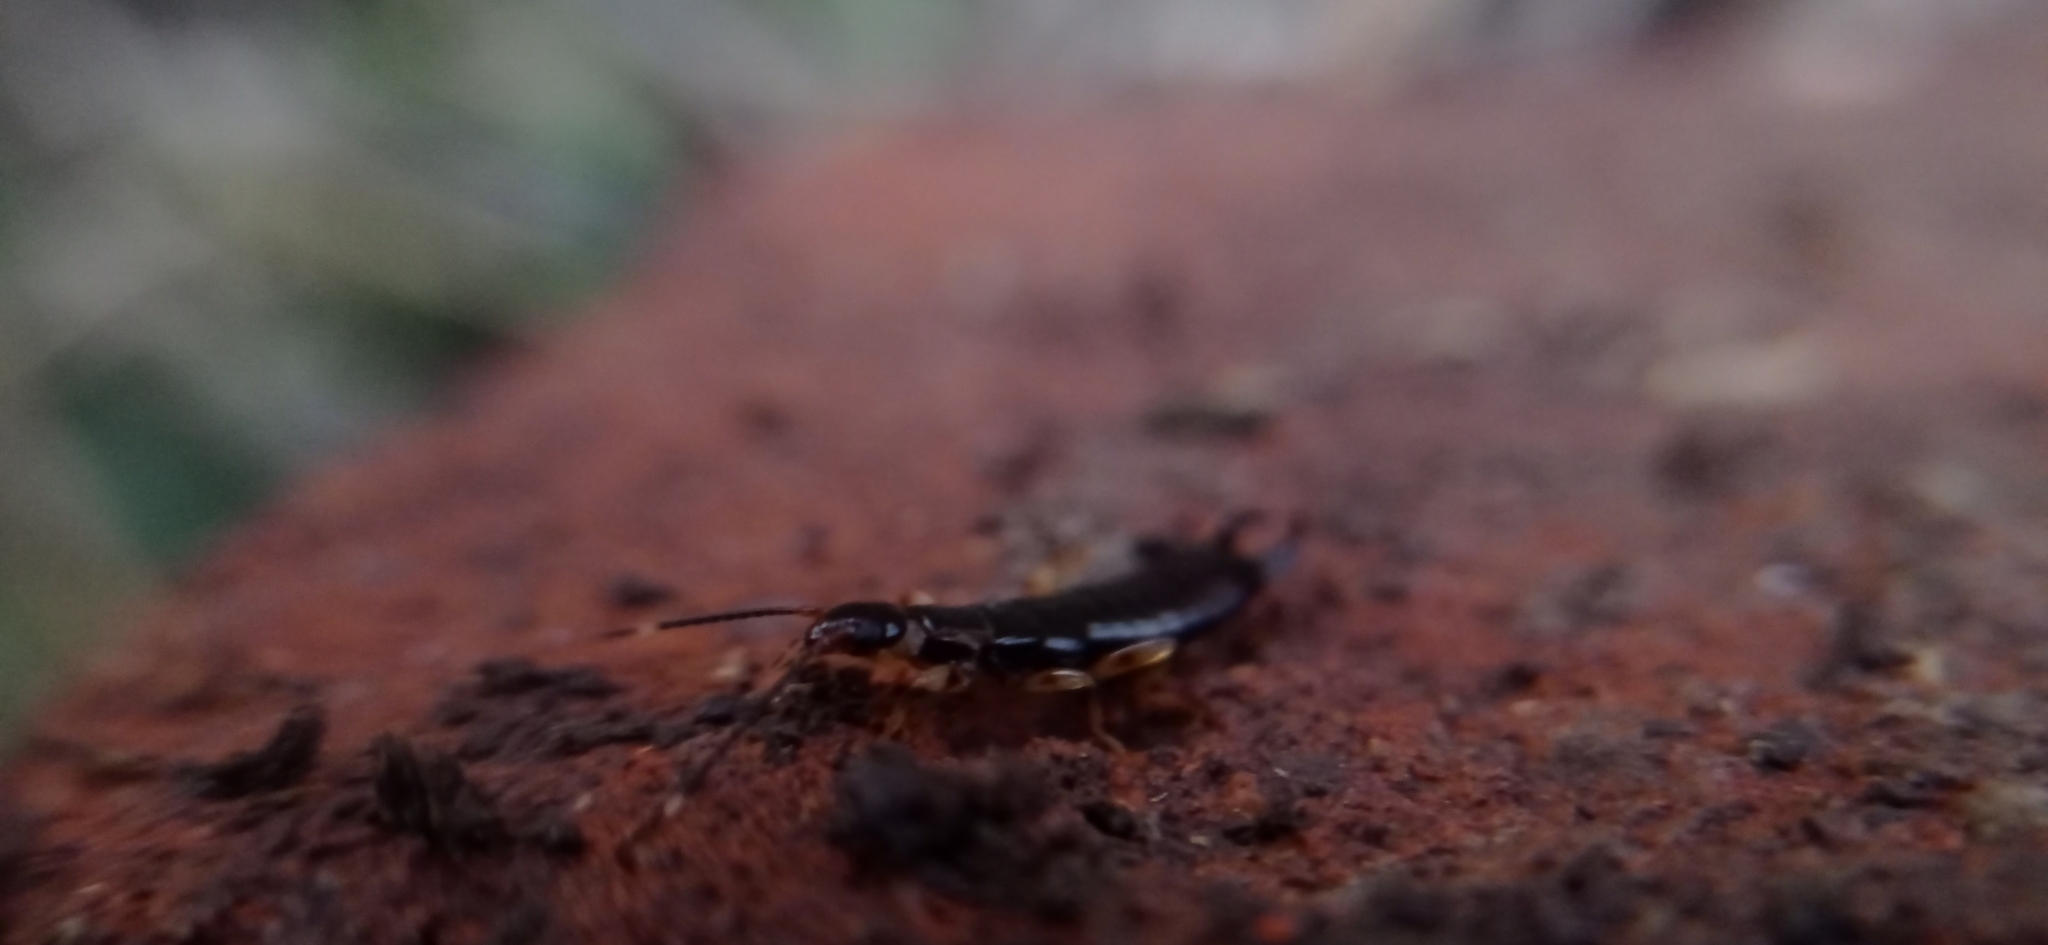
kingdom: Animalia
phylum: Arthropoda
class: Insecta
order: Dermaptera
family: Anisolabididae
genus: Euborellia
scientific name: Euborellia annulipes
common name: Ringlegged earwig
